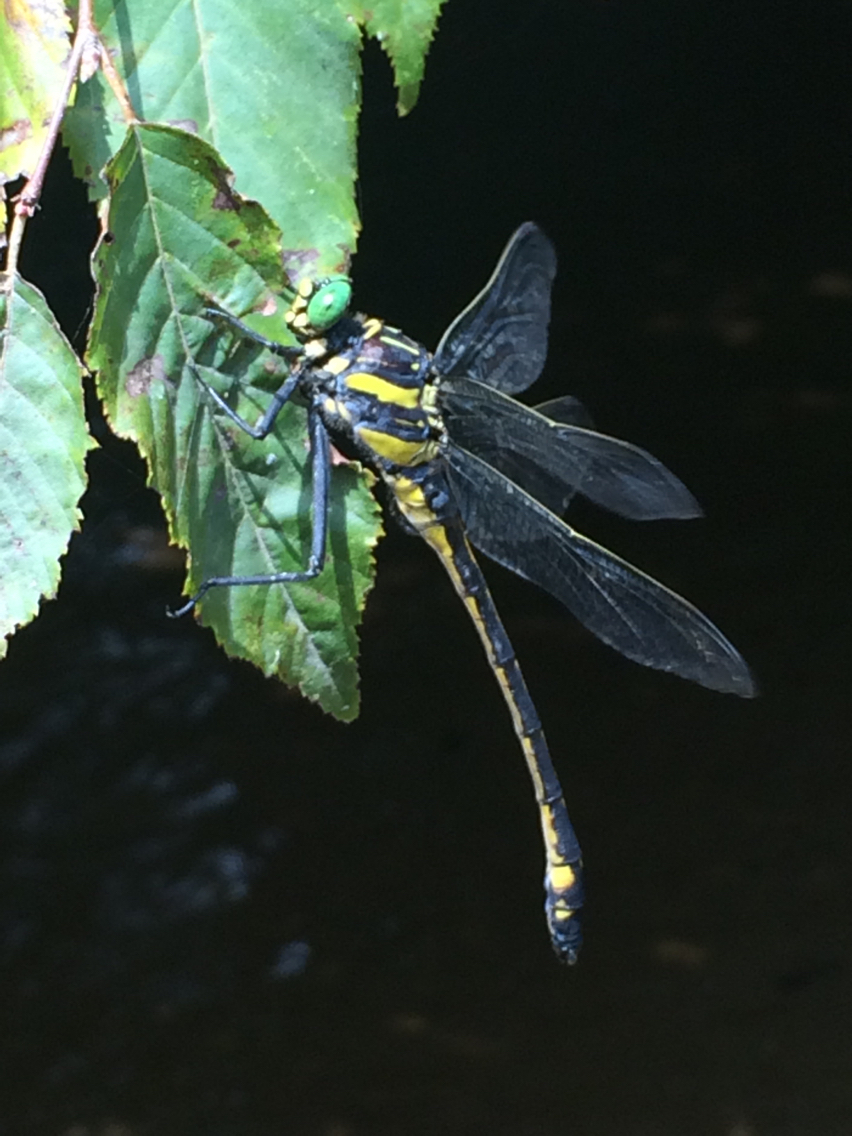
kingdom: Animalia
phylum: Arthropoda
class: Insecta
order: Odonata
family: Gomphidae
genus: Hagenius
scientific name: Hagenius brevistylus
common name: Dragonhunter
